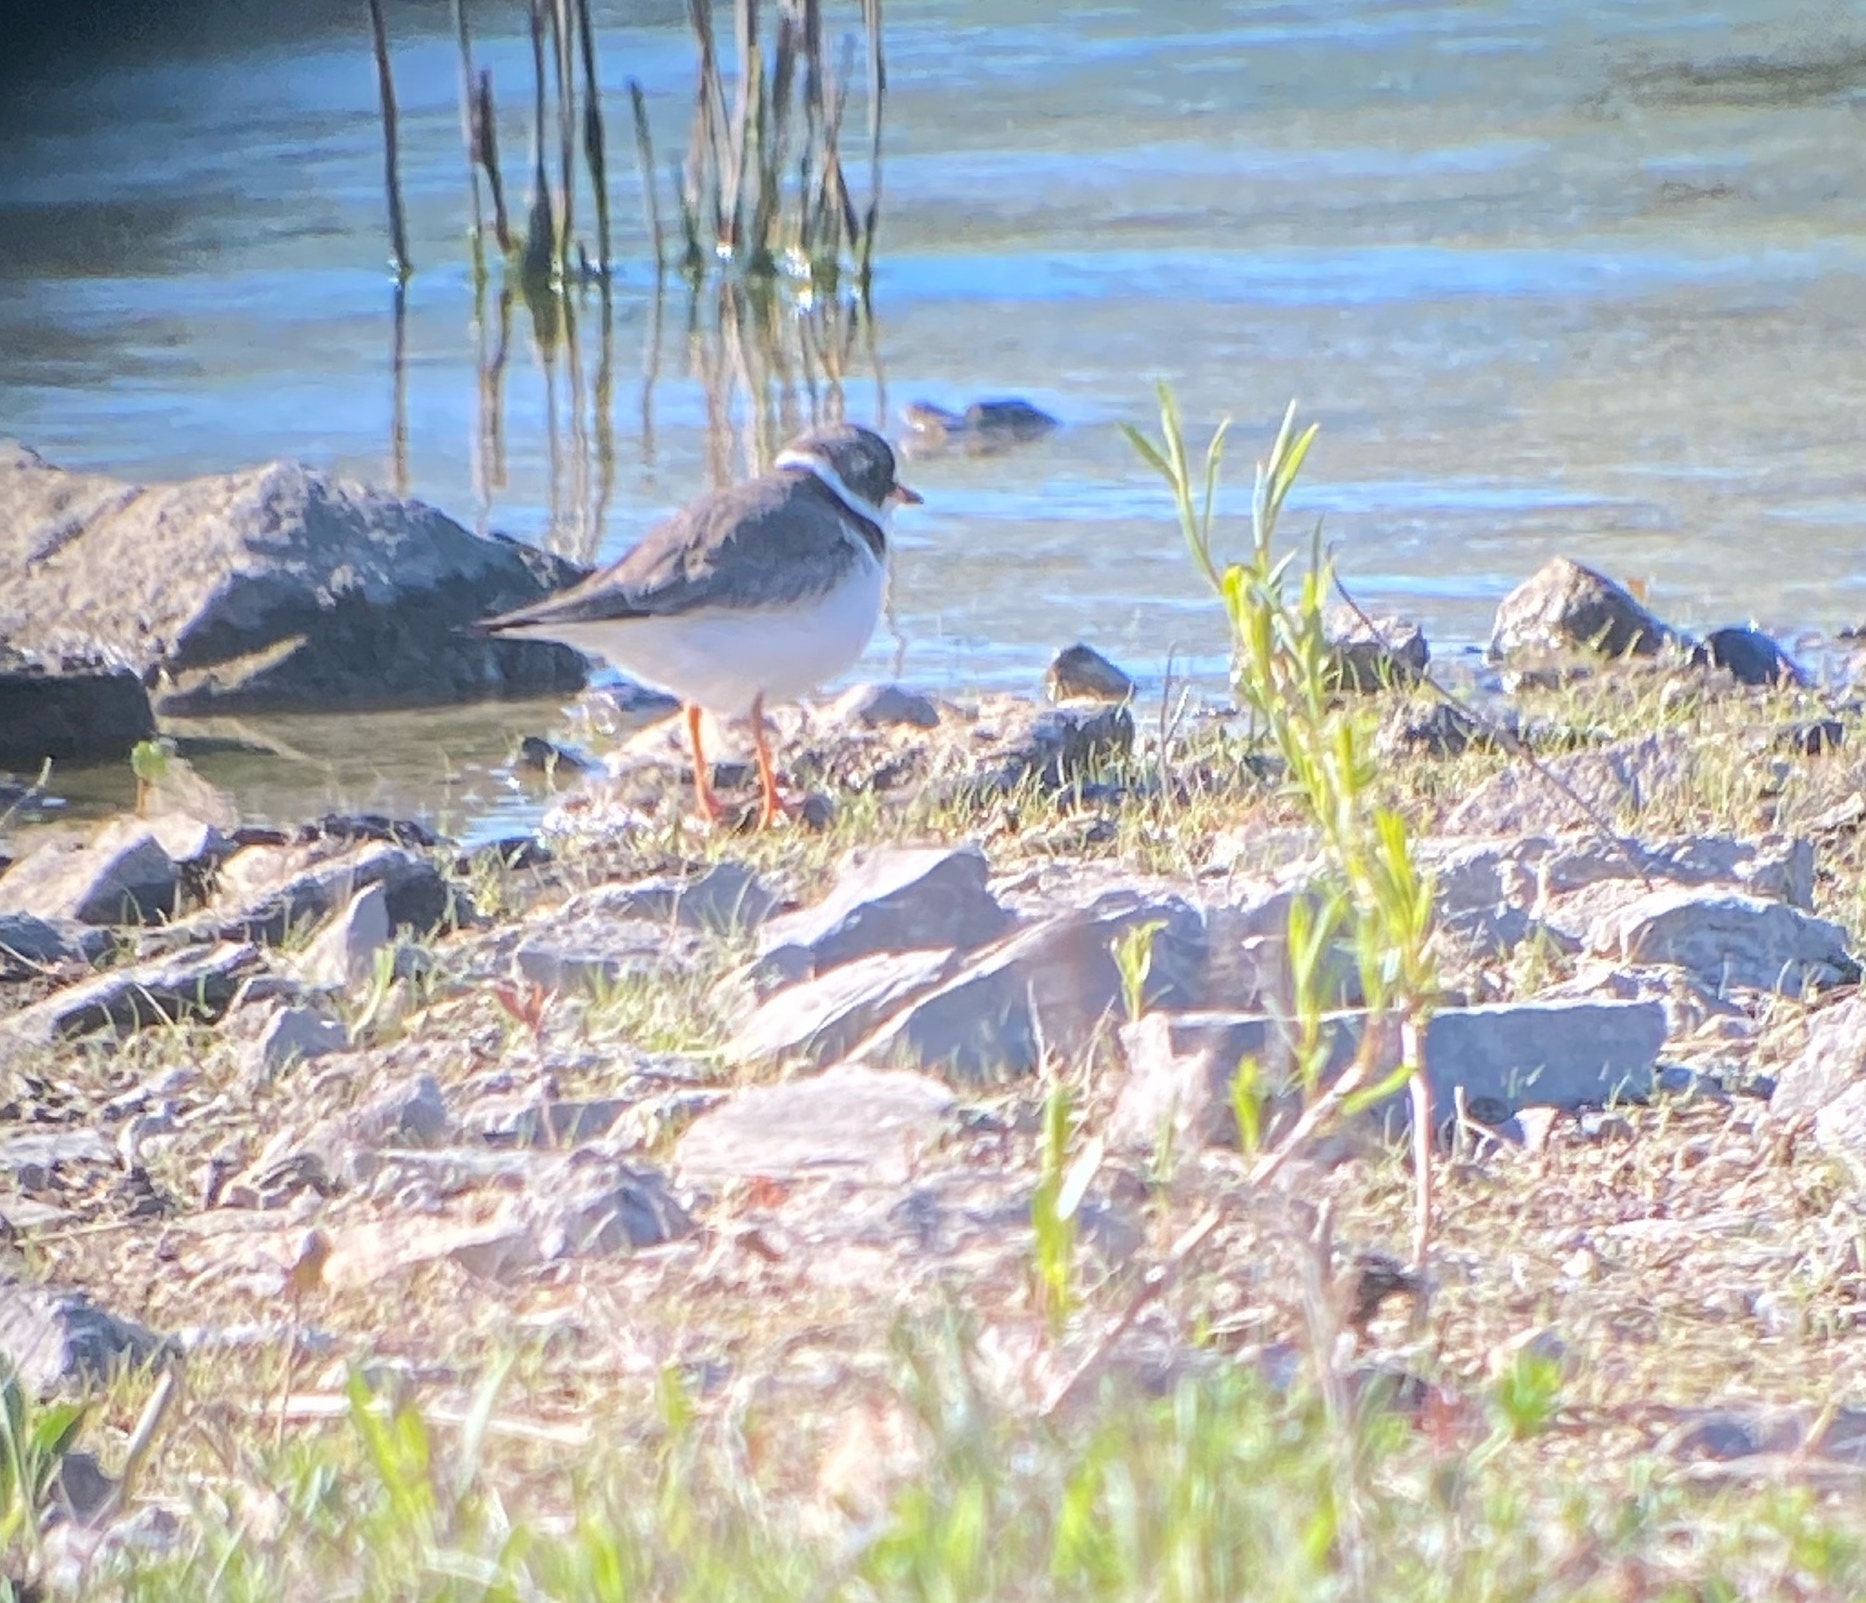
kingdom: Animalia
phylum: Chordata
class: Aves
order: Charadriiformes
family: Charadriidae
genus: Charadrius
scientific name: Charadrius semipalmatus
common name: Semipalmated plover
